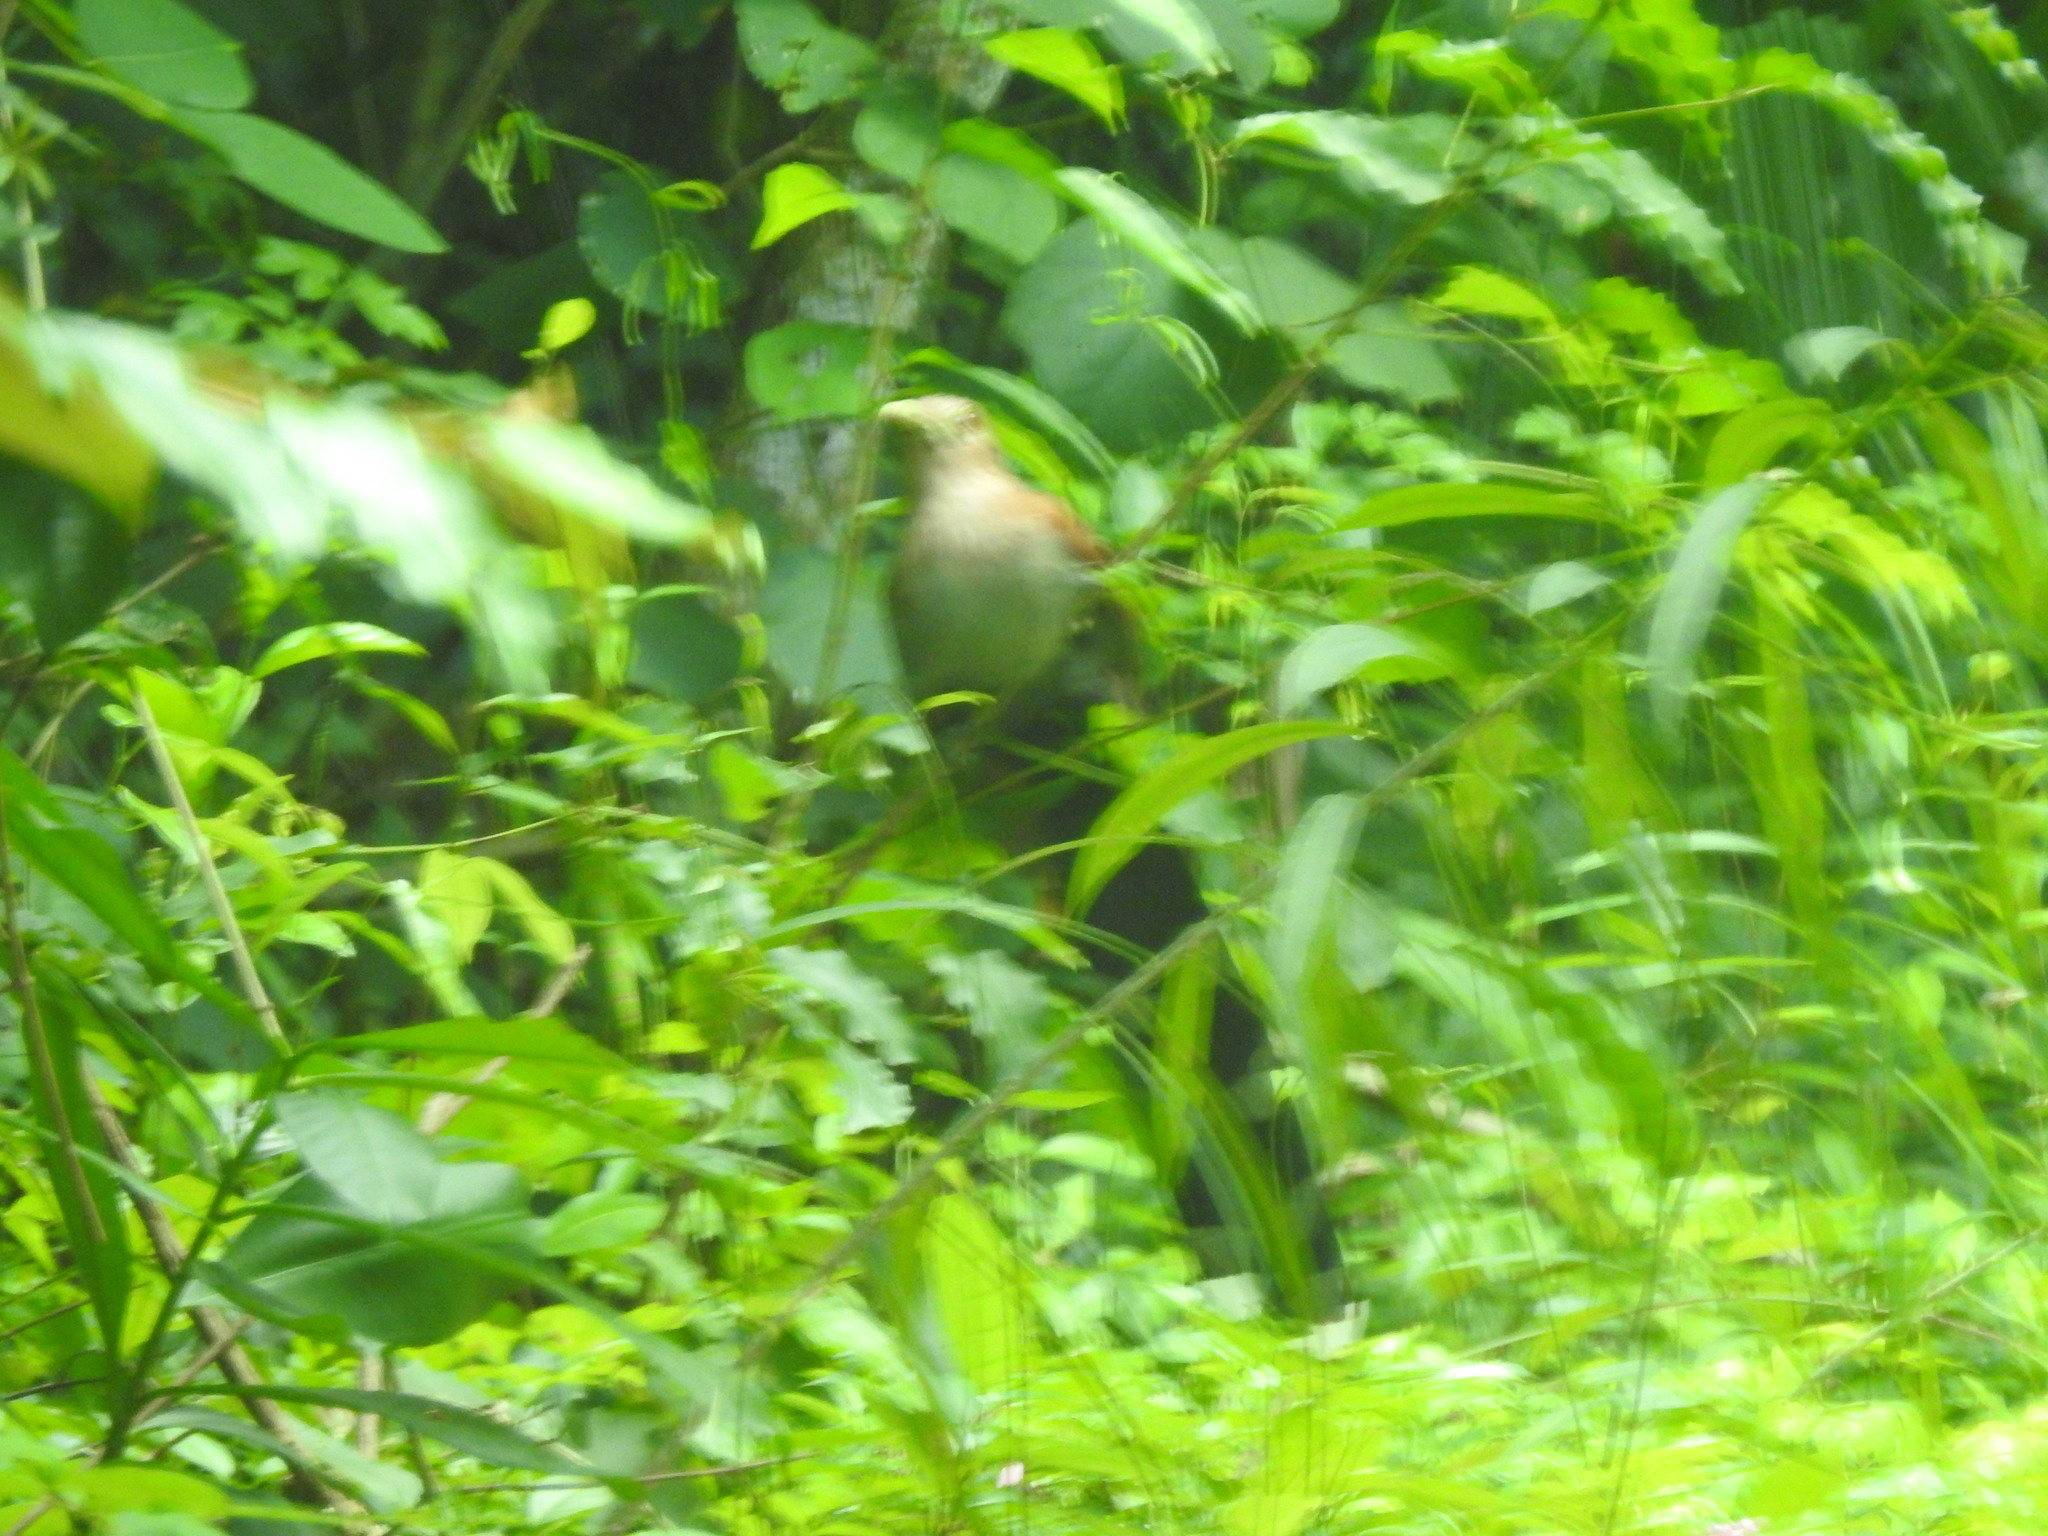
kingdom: Animalia
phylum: Chordata
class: Aves
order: Cuculiformes
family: Cuculidae
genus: Piaya
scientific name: Piaya cayana
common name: Squirrel cuckoo
